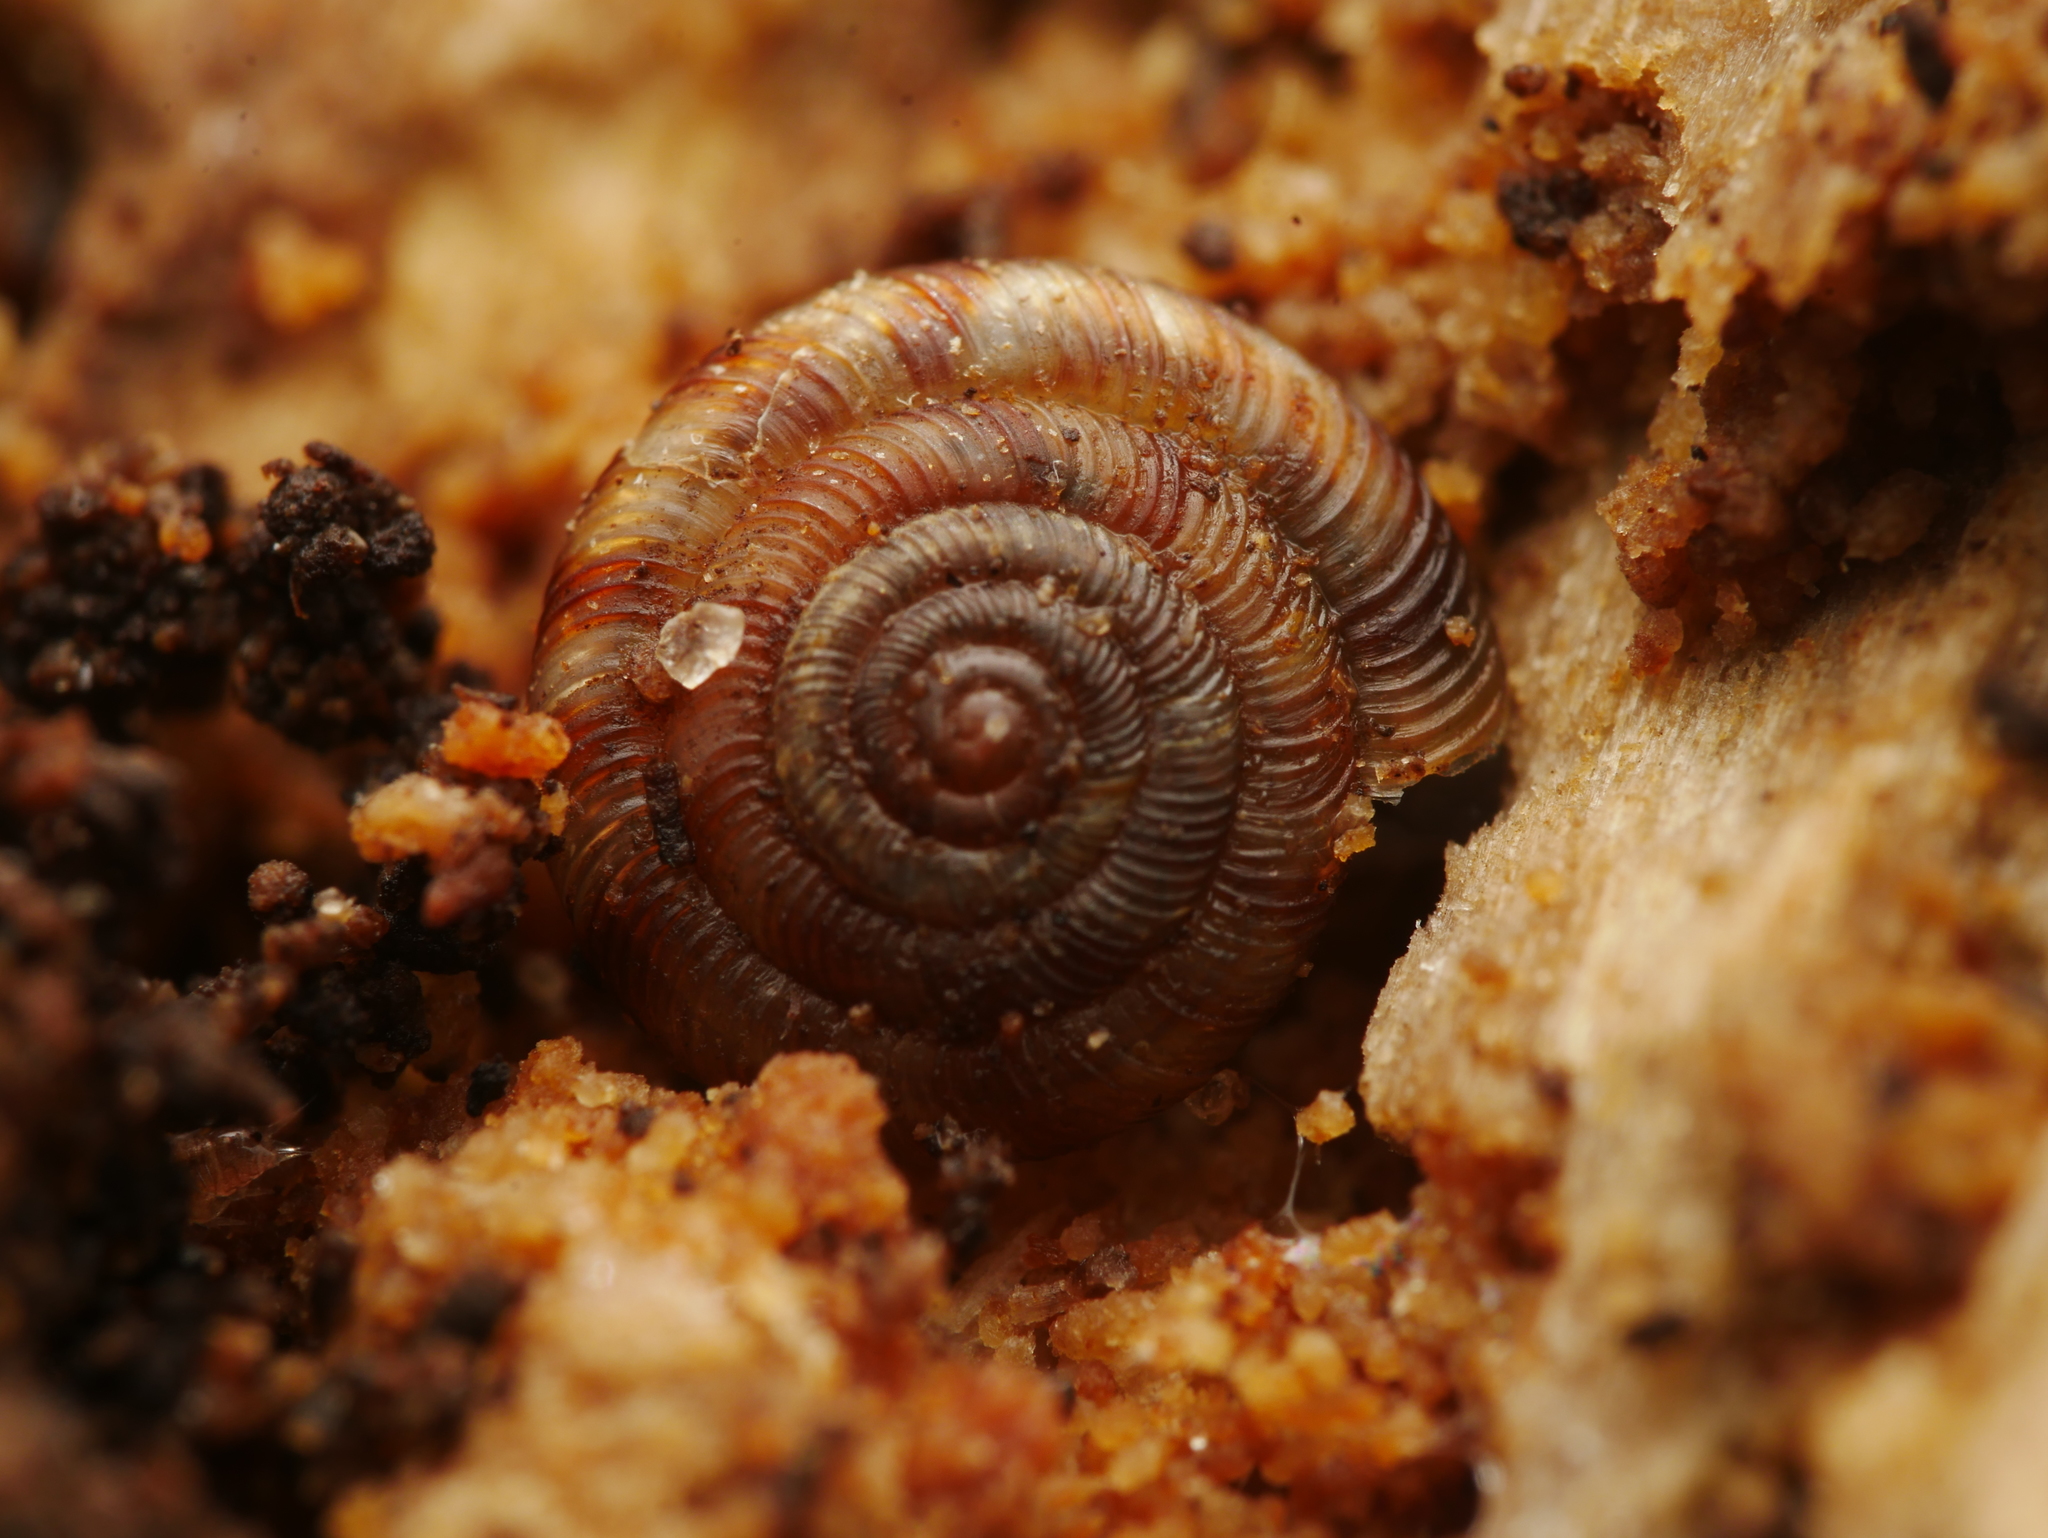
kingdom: Animalia
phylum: Mollusca
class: Gastropoda
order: Stylommatophora
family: Discidae
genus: Discus
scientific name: Discus rotundatus
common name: Rounded snail
